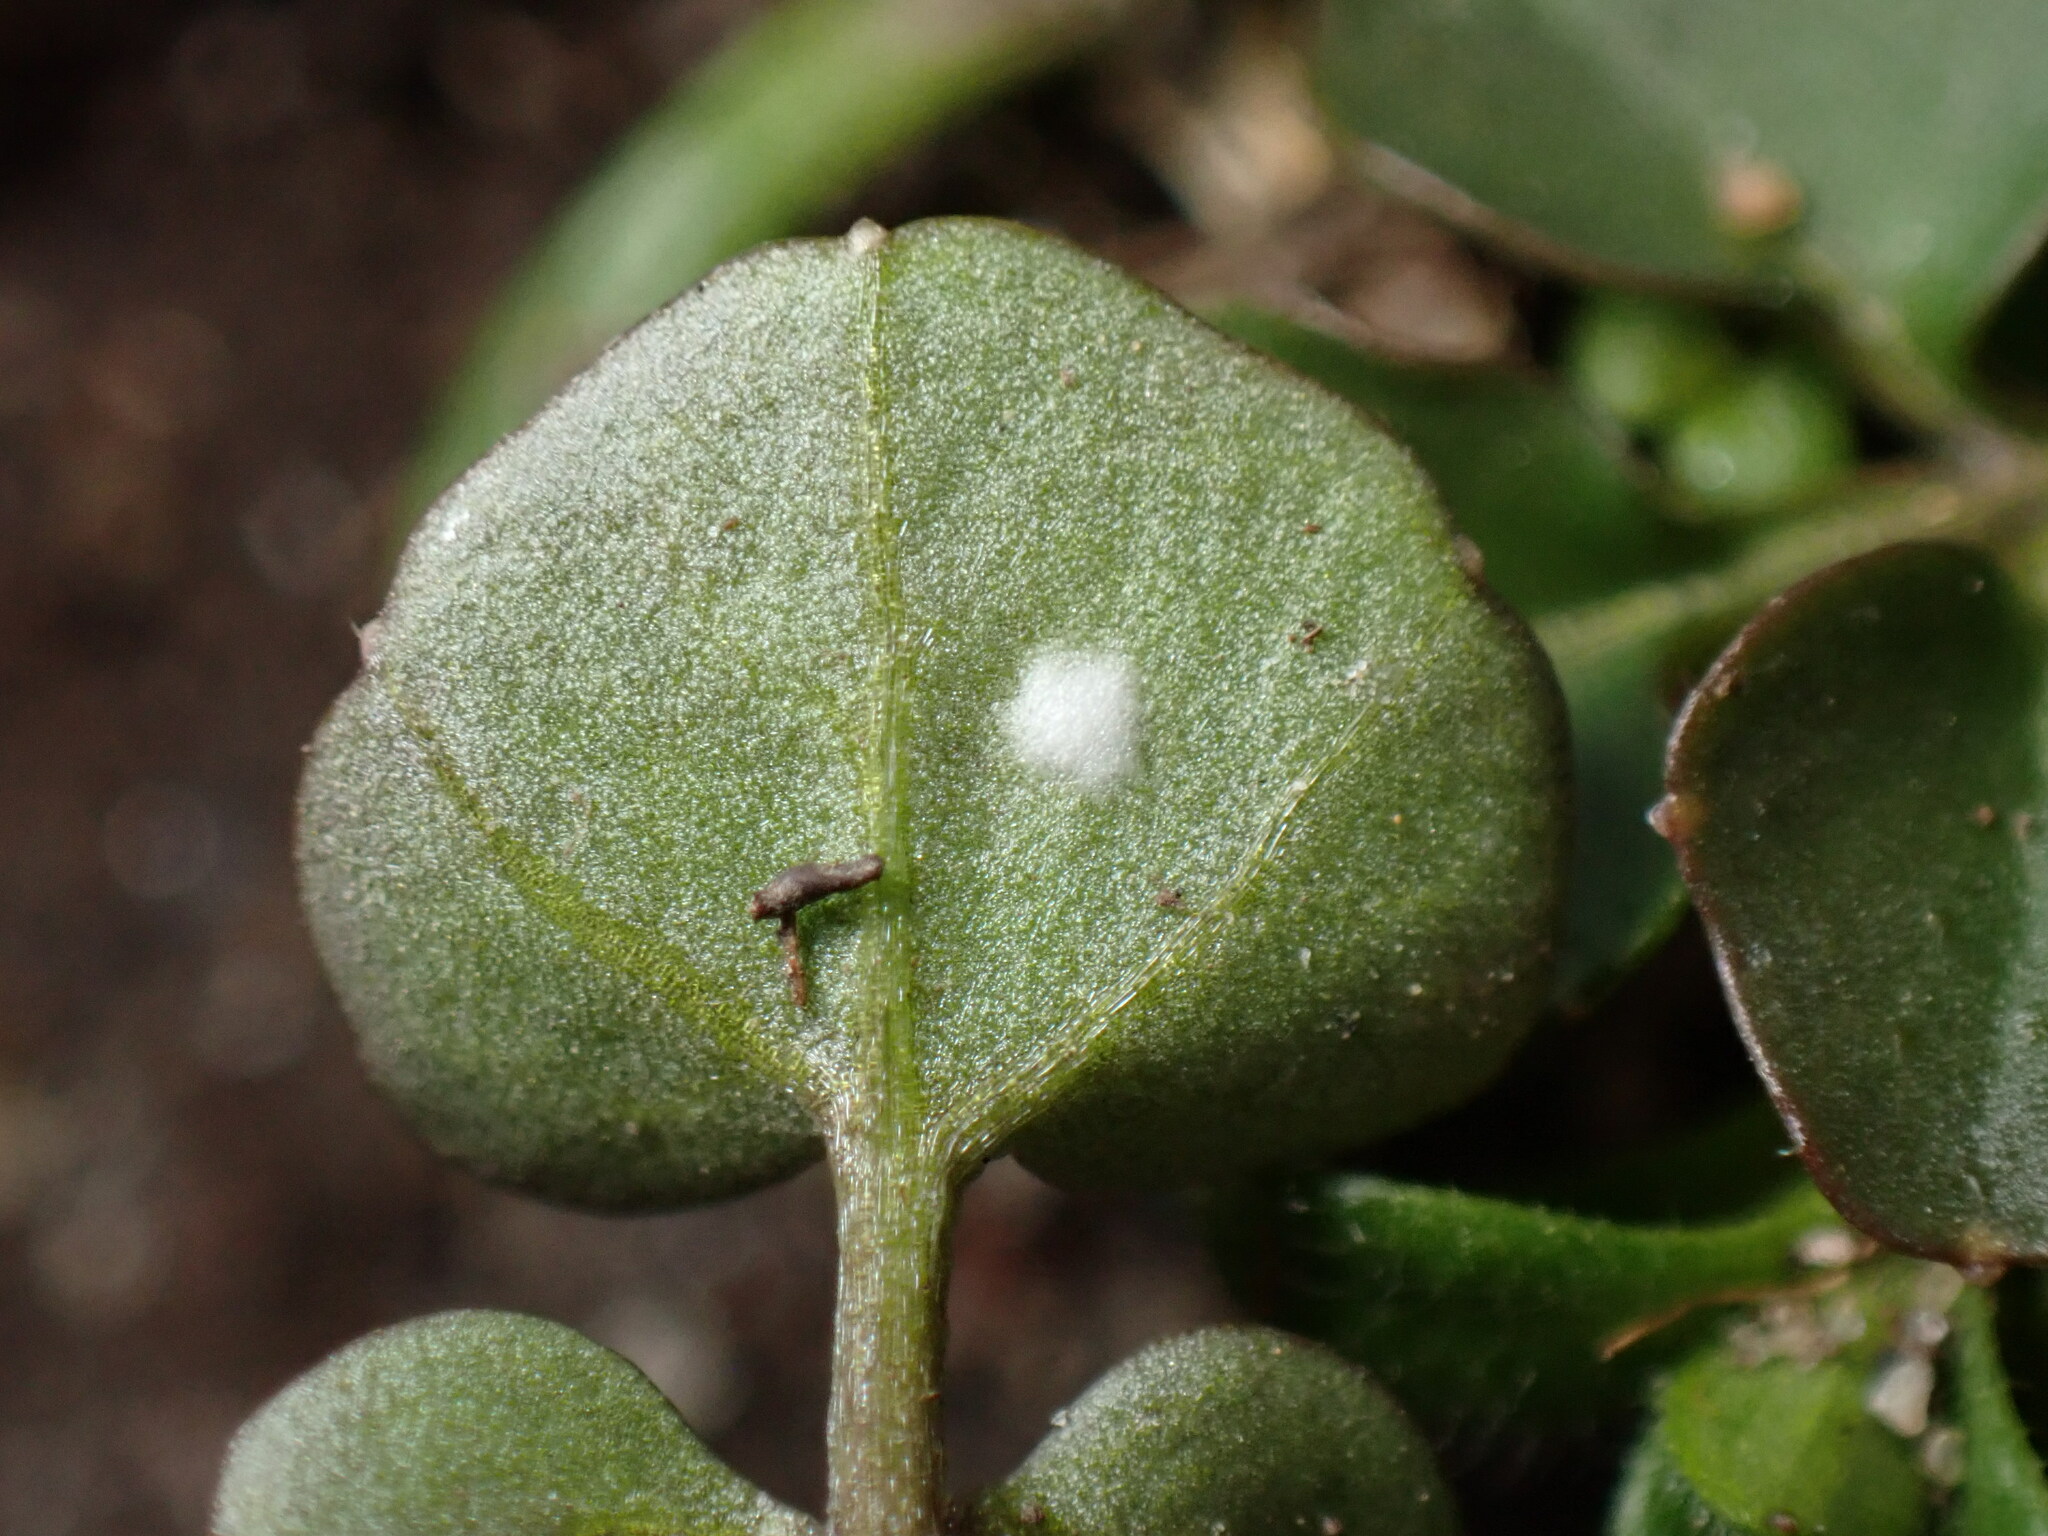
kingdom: Chromista
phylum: Oomycota
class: Peronosporea
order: Albuginales
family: Albuginaceae
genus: Albugo
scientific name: Albugo hohenheimia
